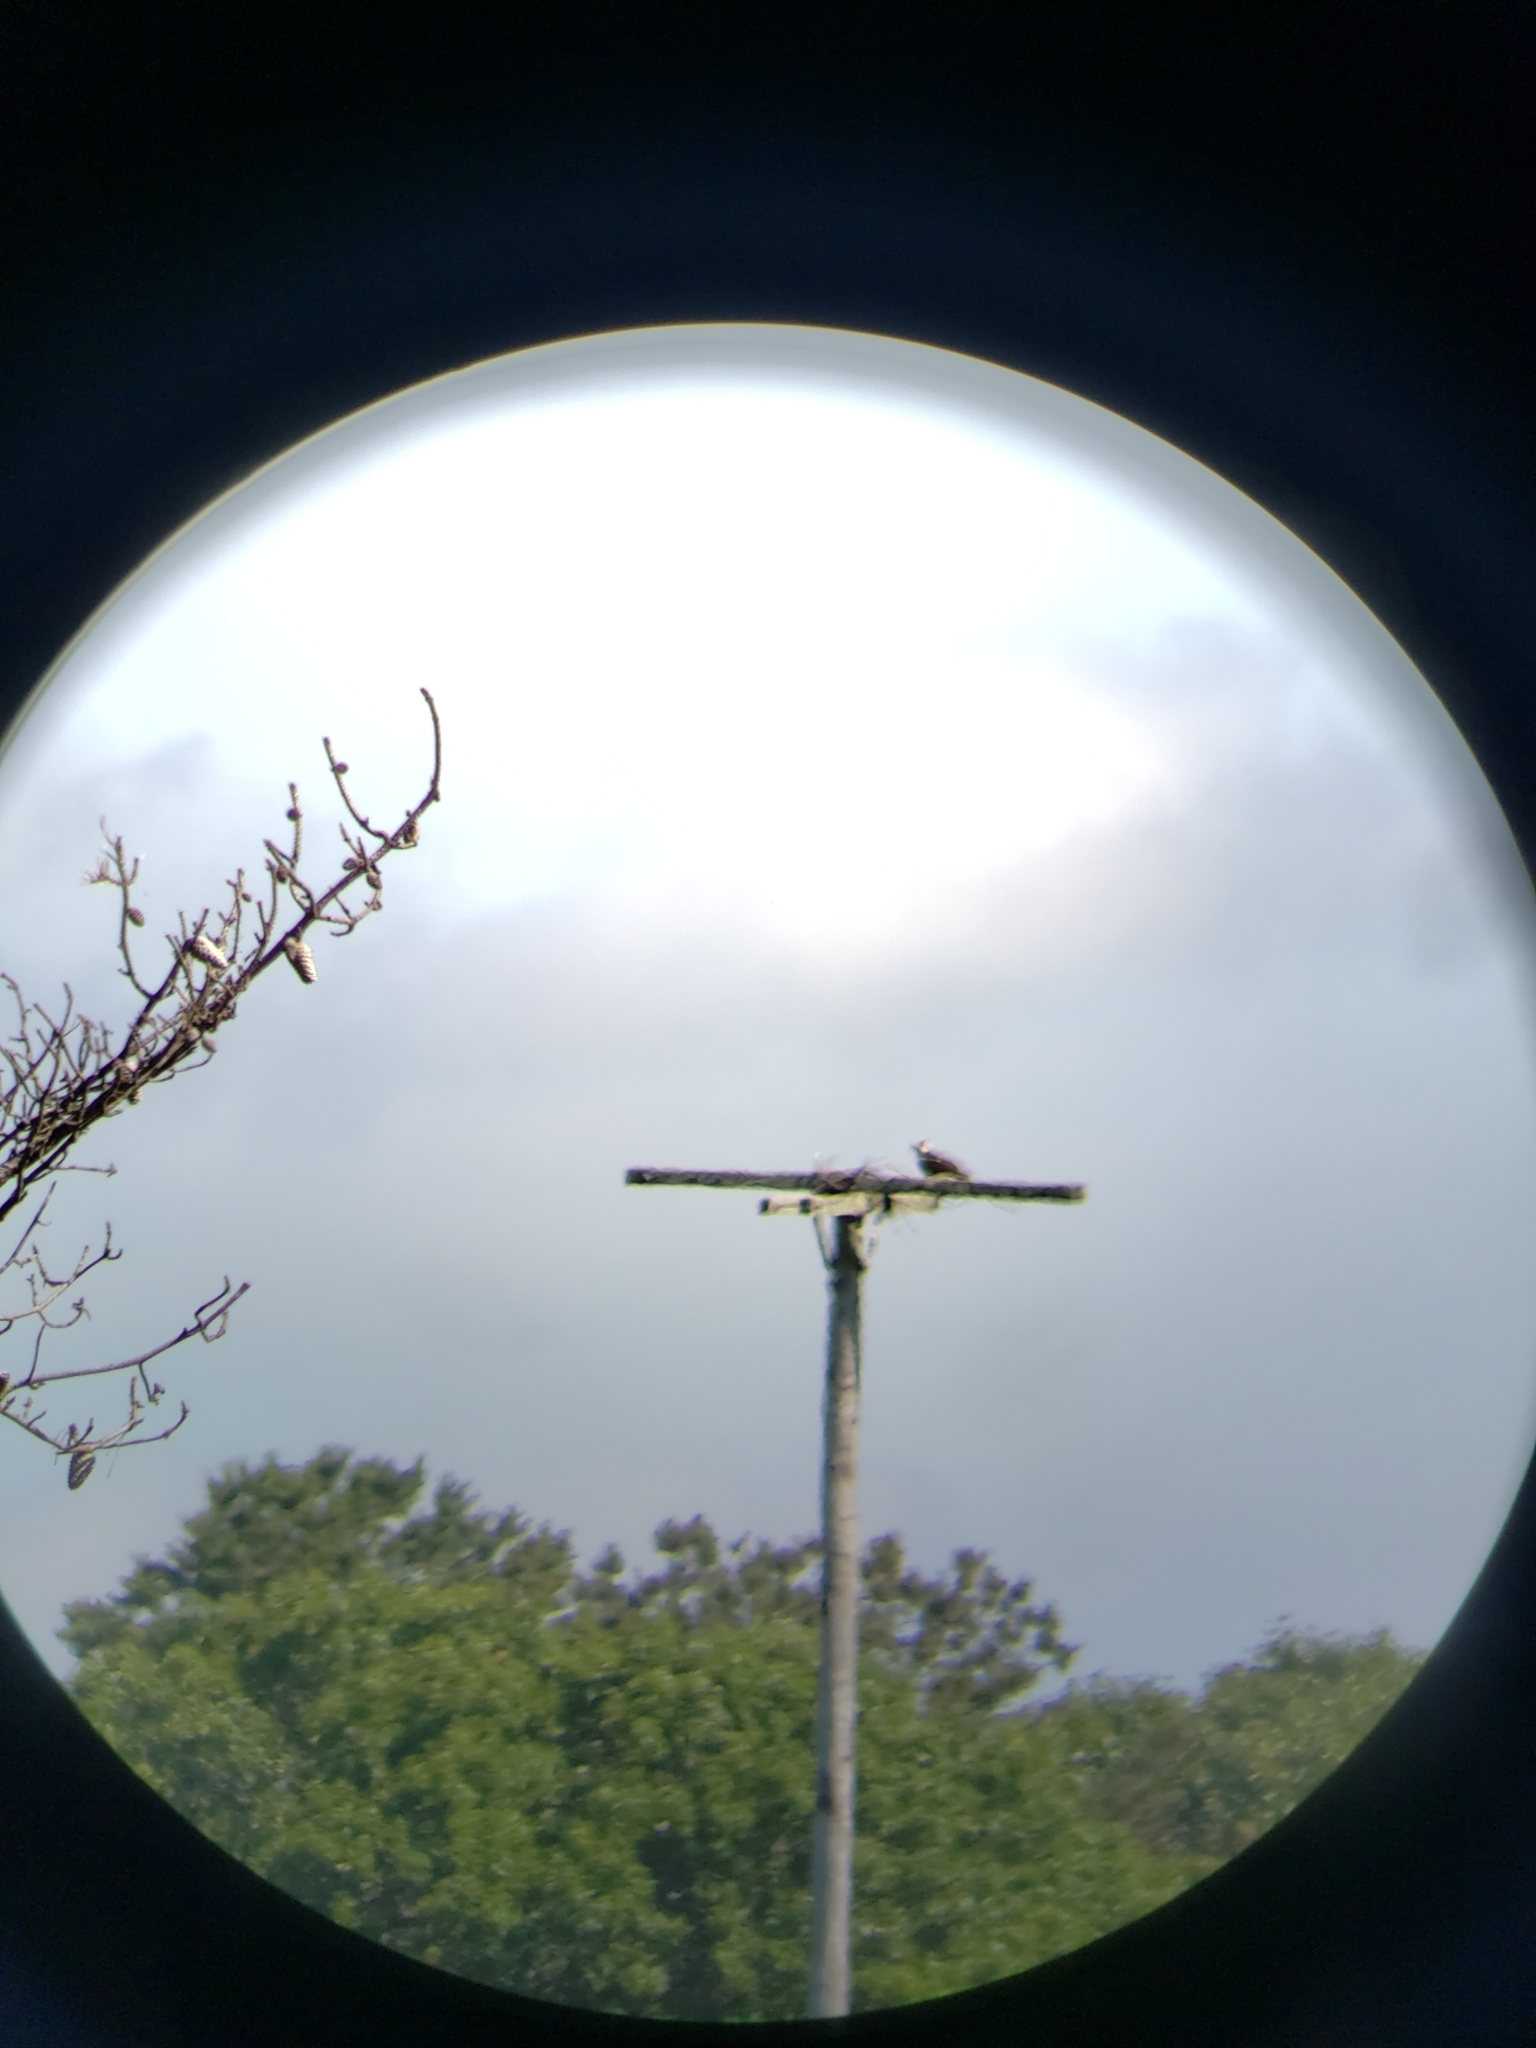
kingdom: Animalia
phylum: Chordata
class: Aves
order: Accipitriformes
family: Pandionidae
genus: Pandion
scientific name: Pandion haliaetus
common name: Osprey
